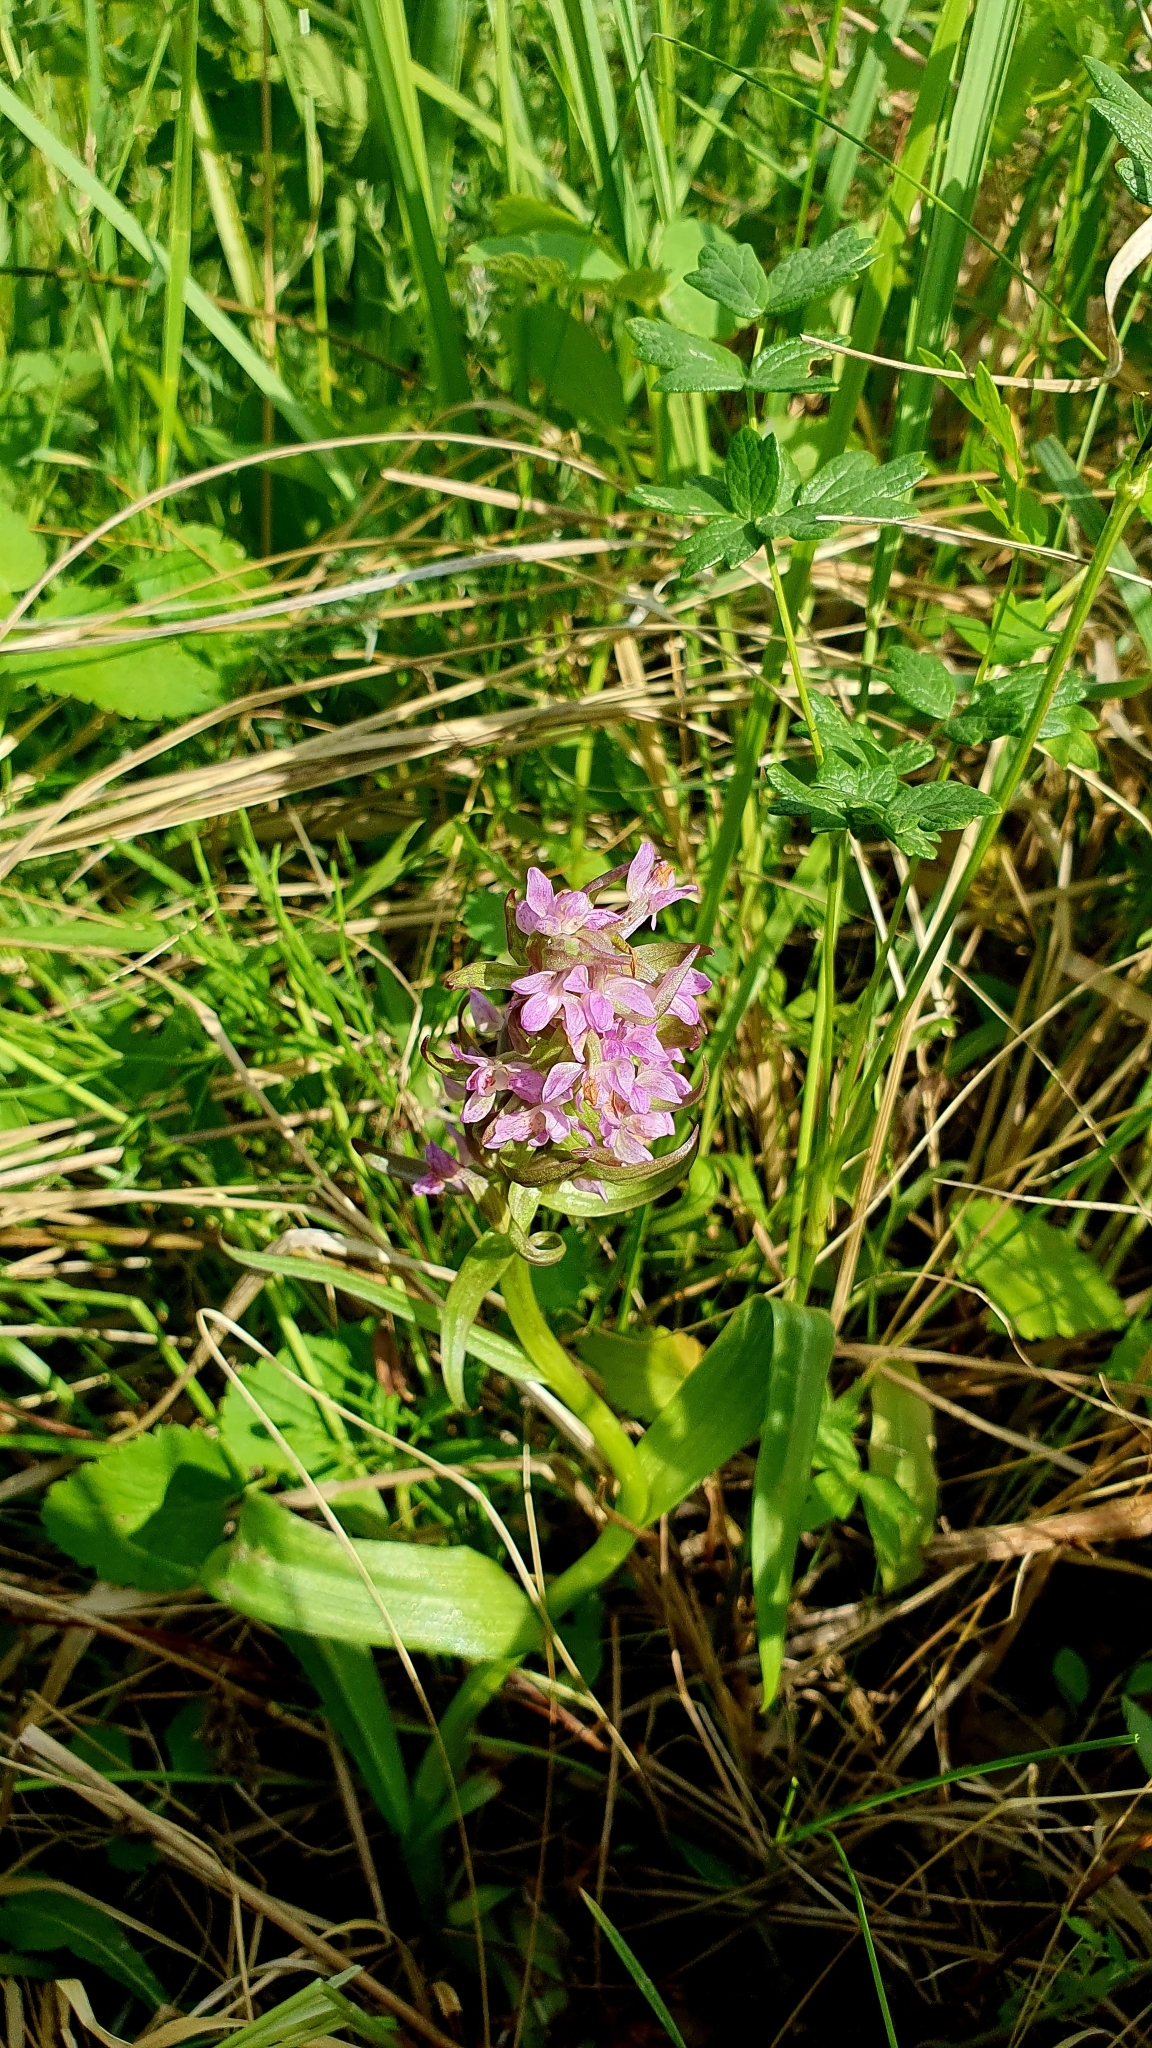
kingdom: Plantae
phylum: Tracheophyta
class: Liliopsida
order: Asparagales
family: Orchidaceae
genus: Dactylorhiza
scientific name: Dactylorhiza incarnata
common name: Early marsh-orchid
